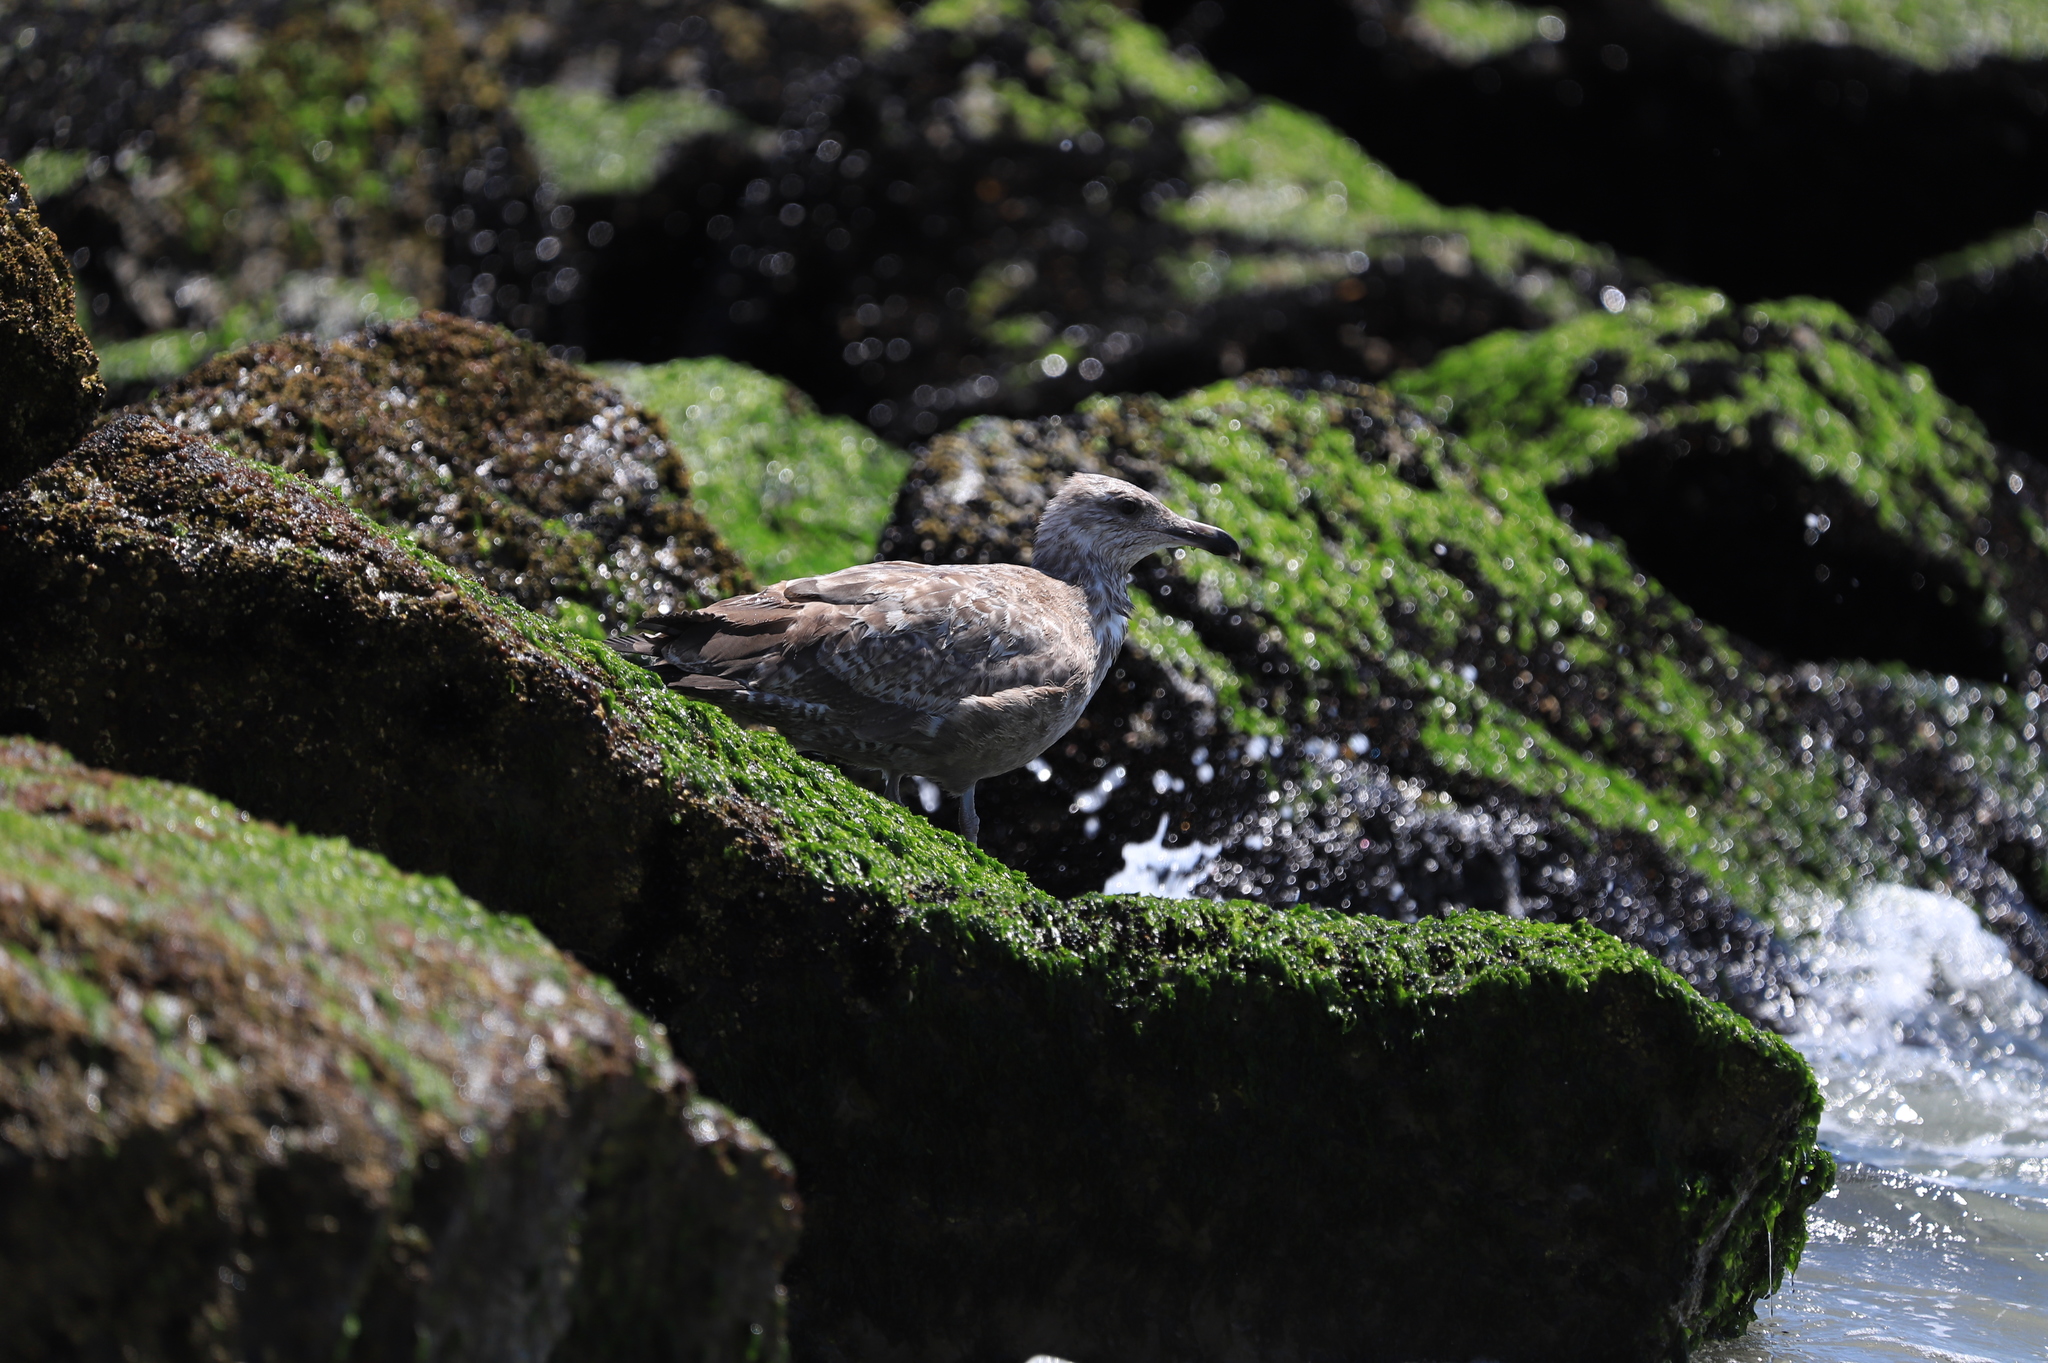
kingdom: Animalia
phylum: Chordata
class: Aves
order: Charadriiformes
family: Laridae
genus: Larus
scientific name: Larus argentatus
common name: Herring gull
